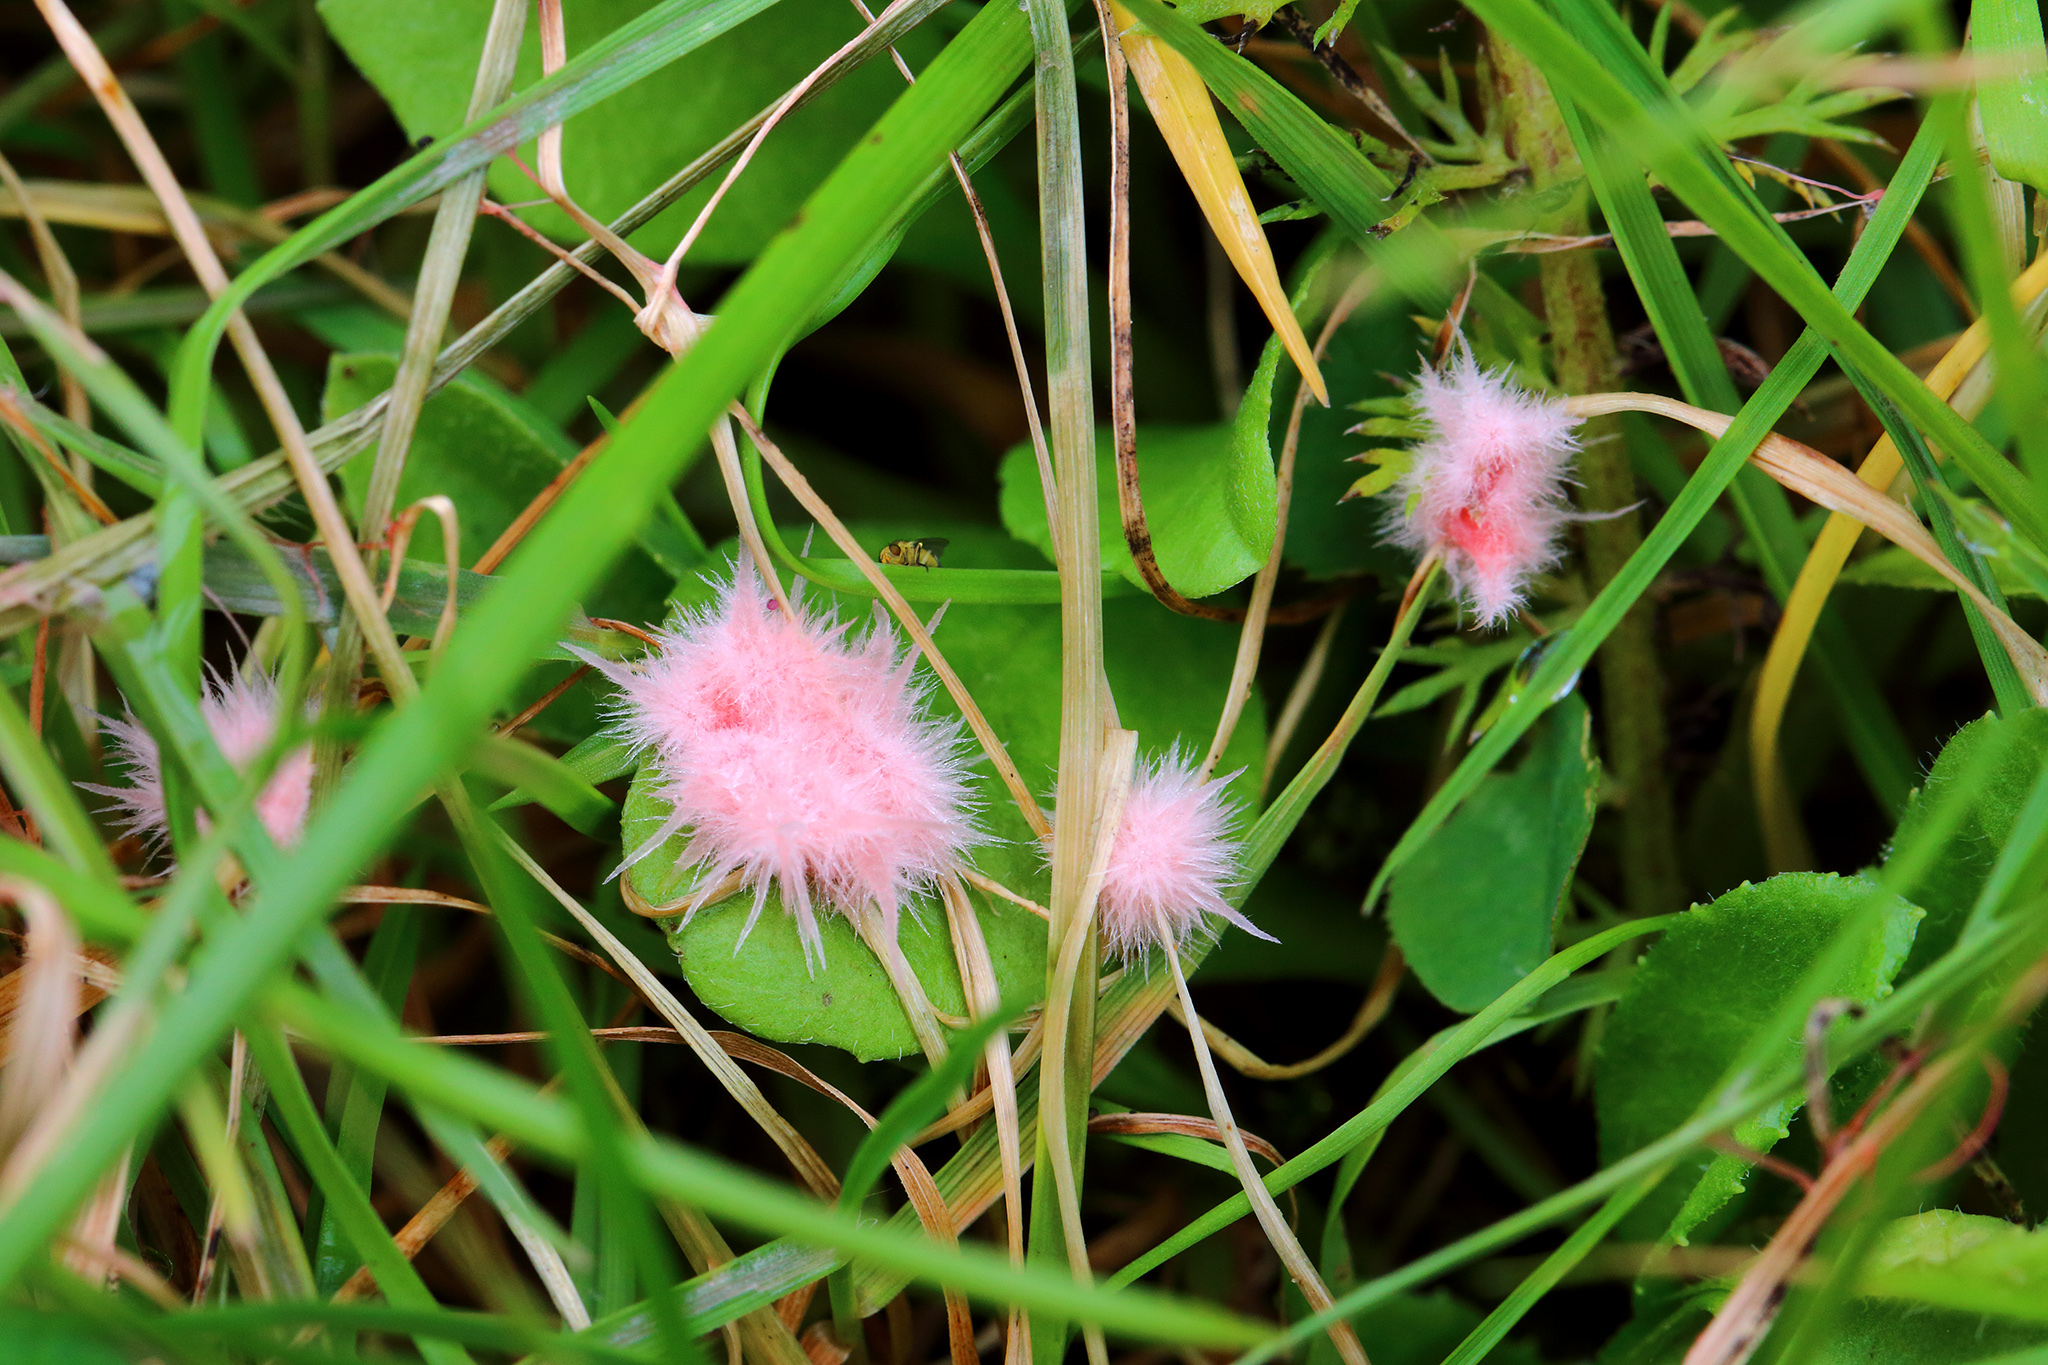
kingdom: Fungi
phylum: Basidiomycota
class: Agaricomycetes
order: Corticiales
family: Corticiaceae
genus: Laetisaria
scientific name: Laetisaria fuciformis
